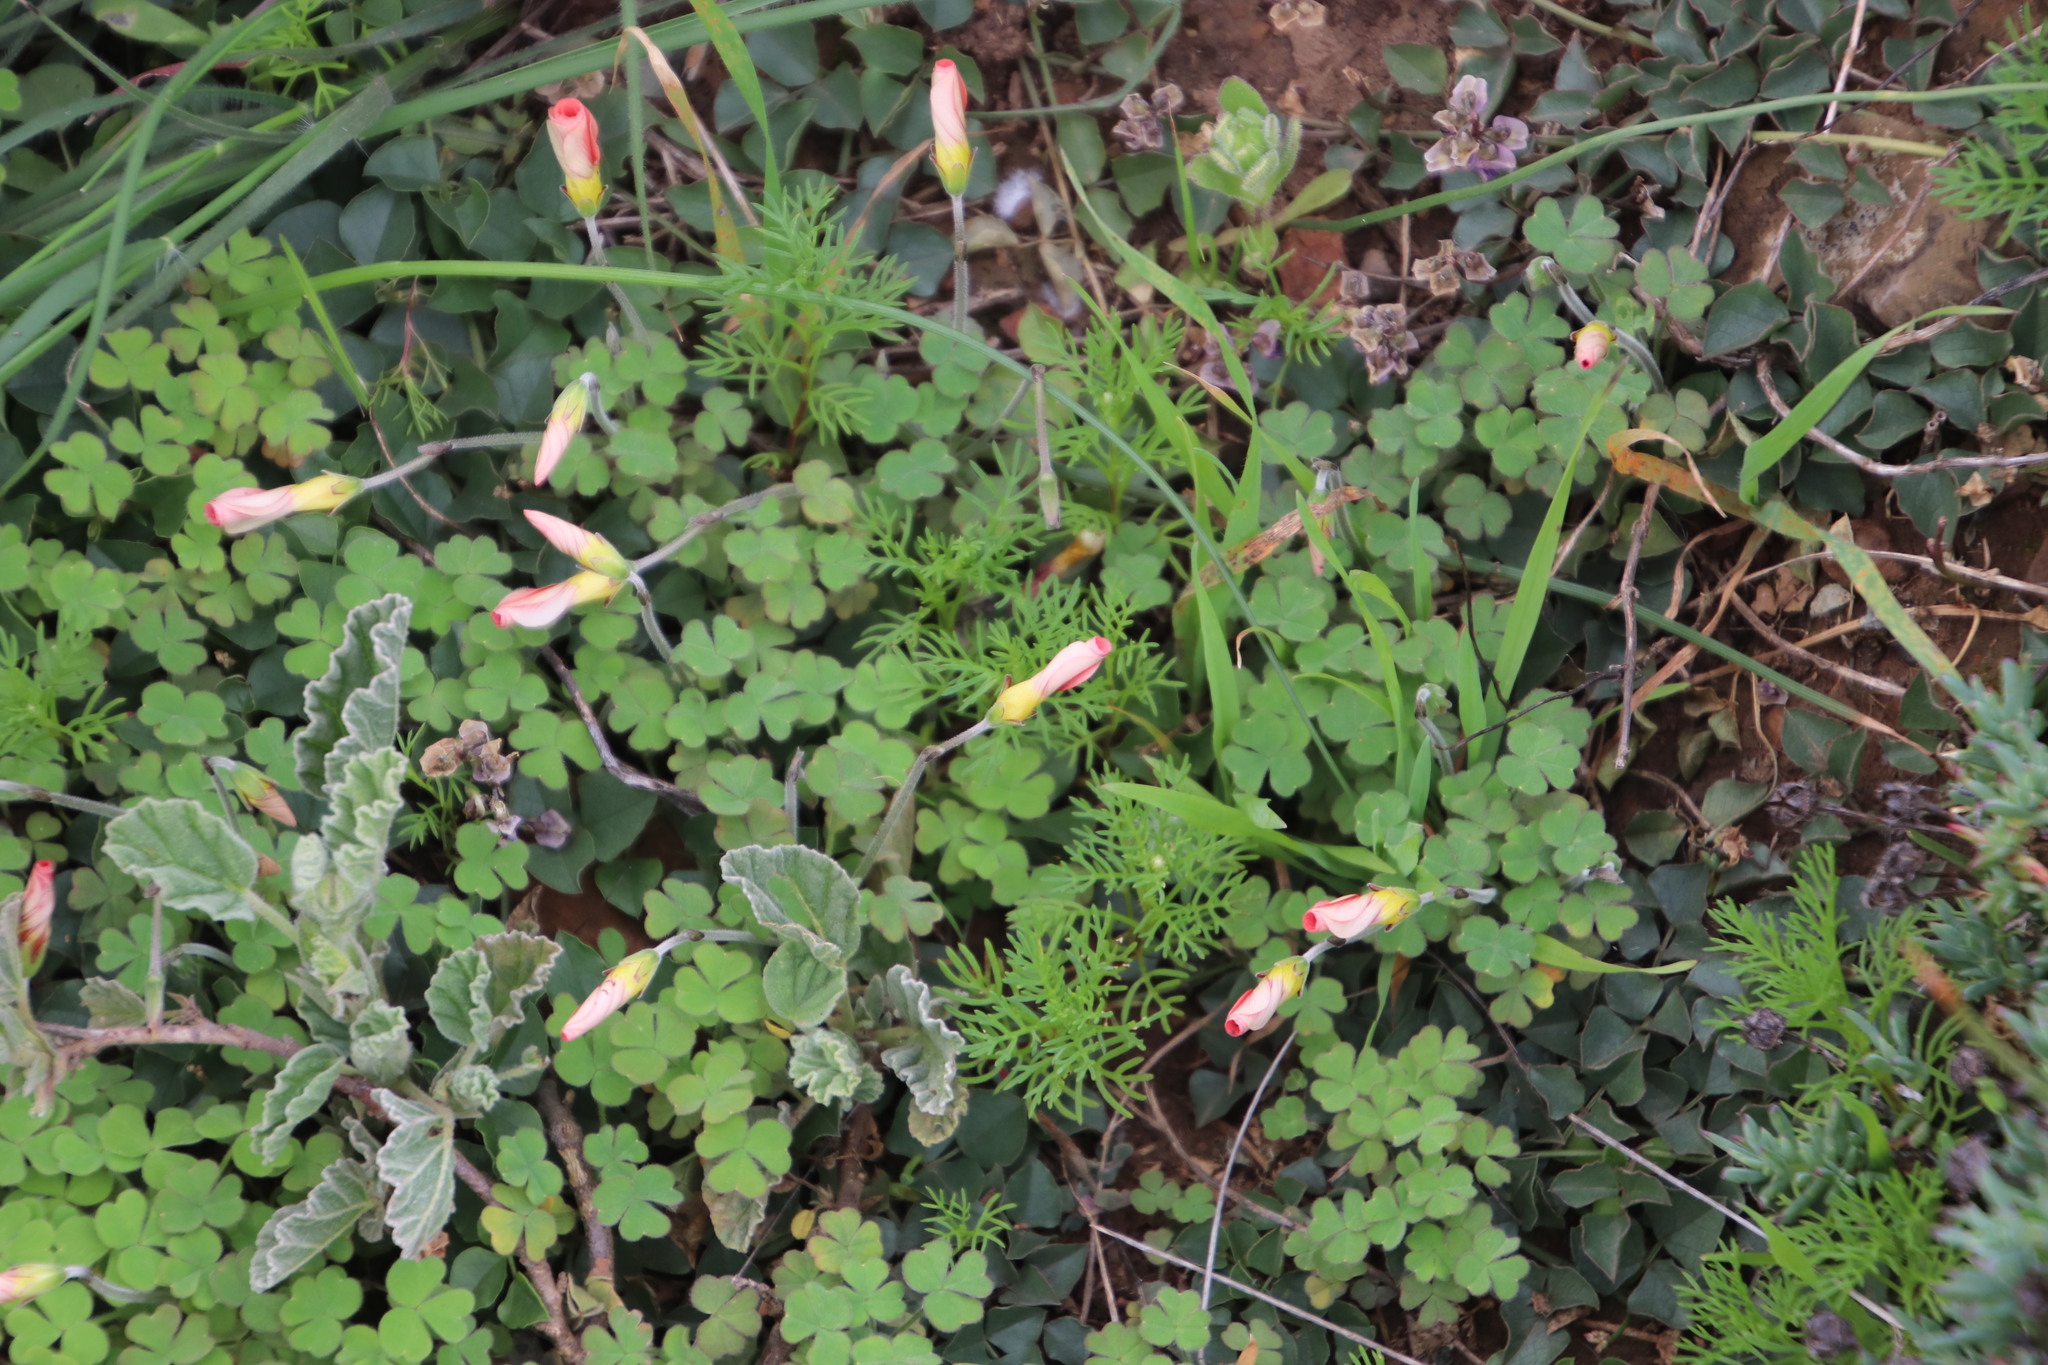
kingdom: Plantae
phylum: Tracheophyta
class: Magnoliopsida
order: Oxalidales
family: Oxalidaceae
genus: Oxalis
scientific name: Oxalis obtusa
